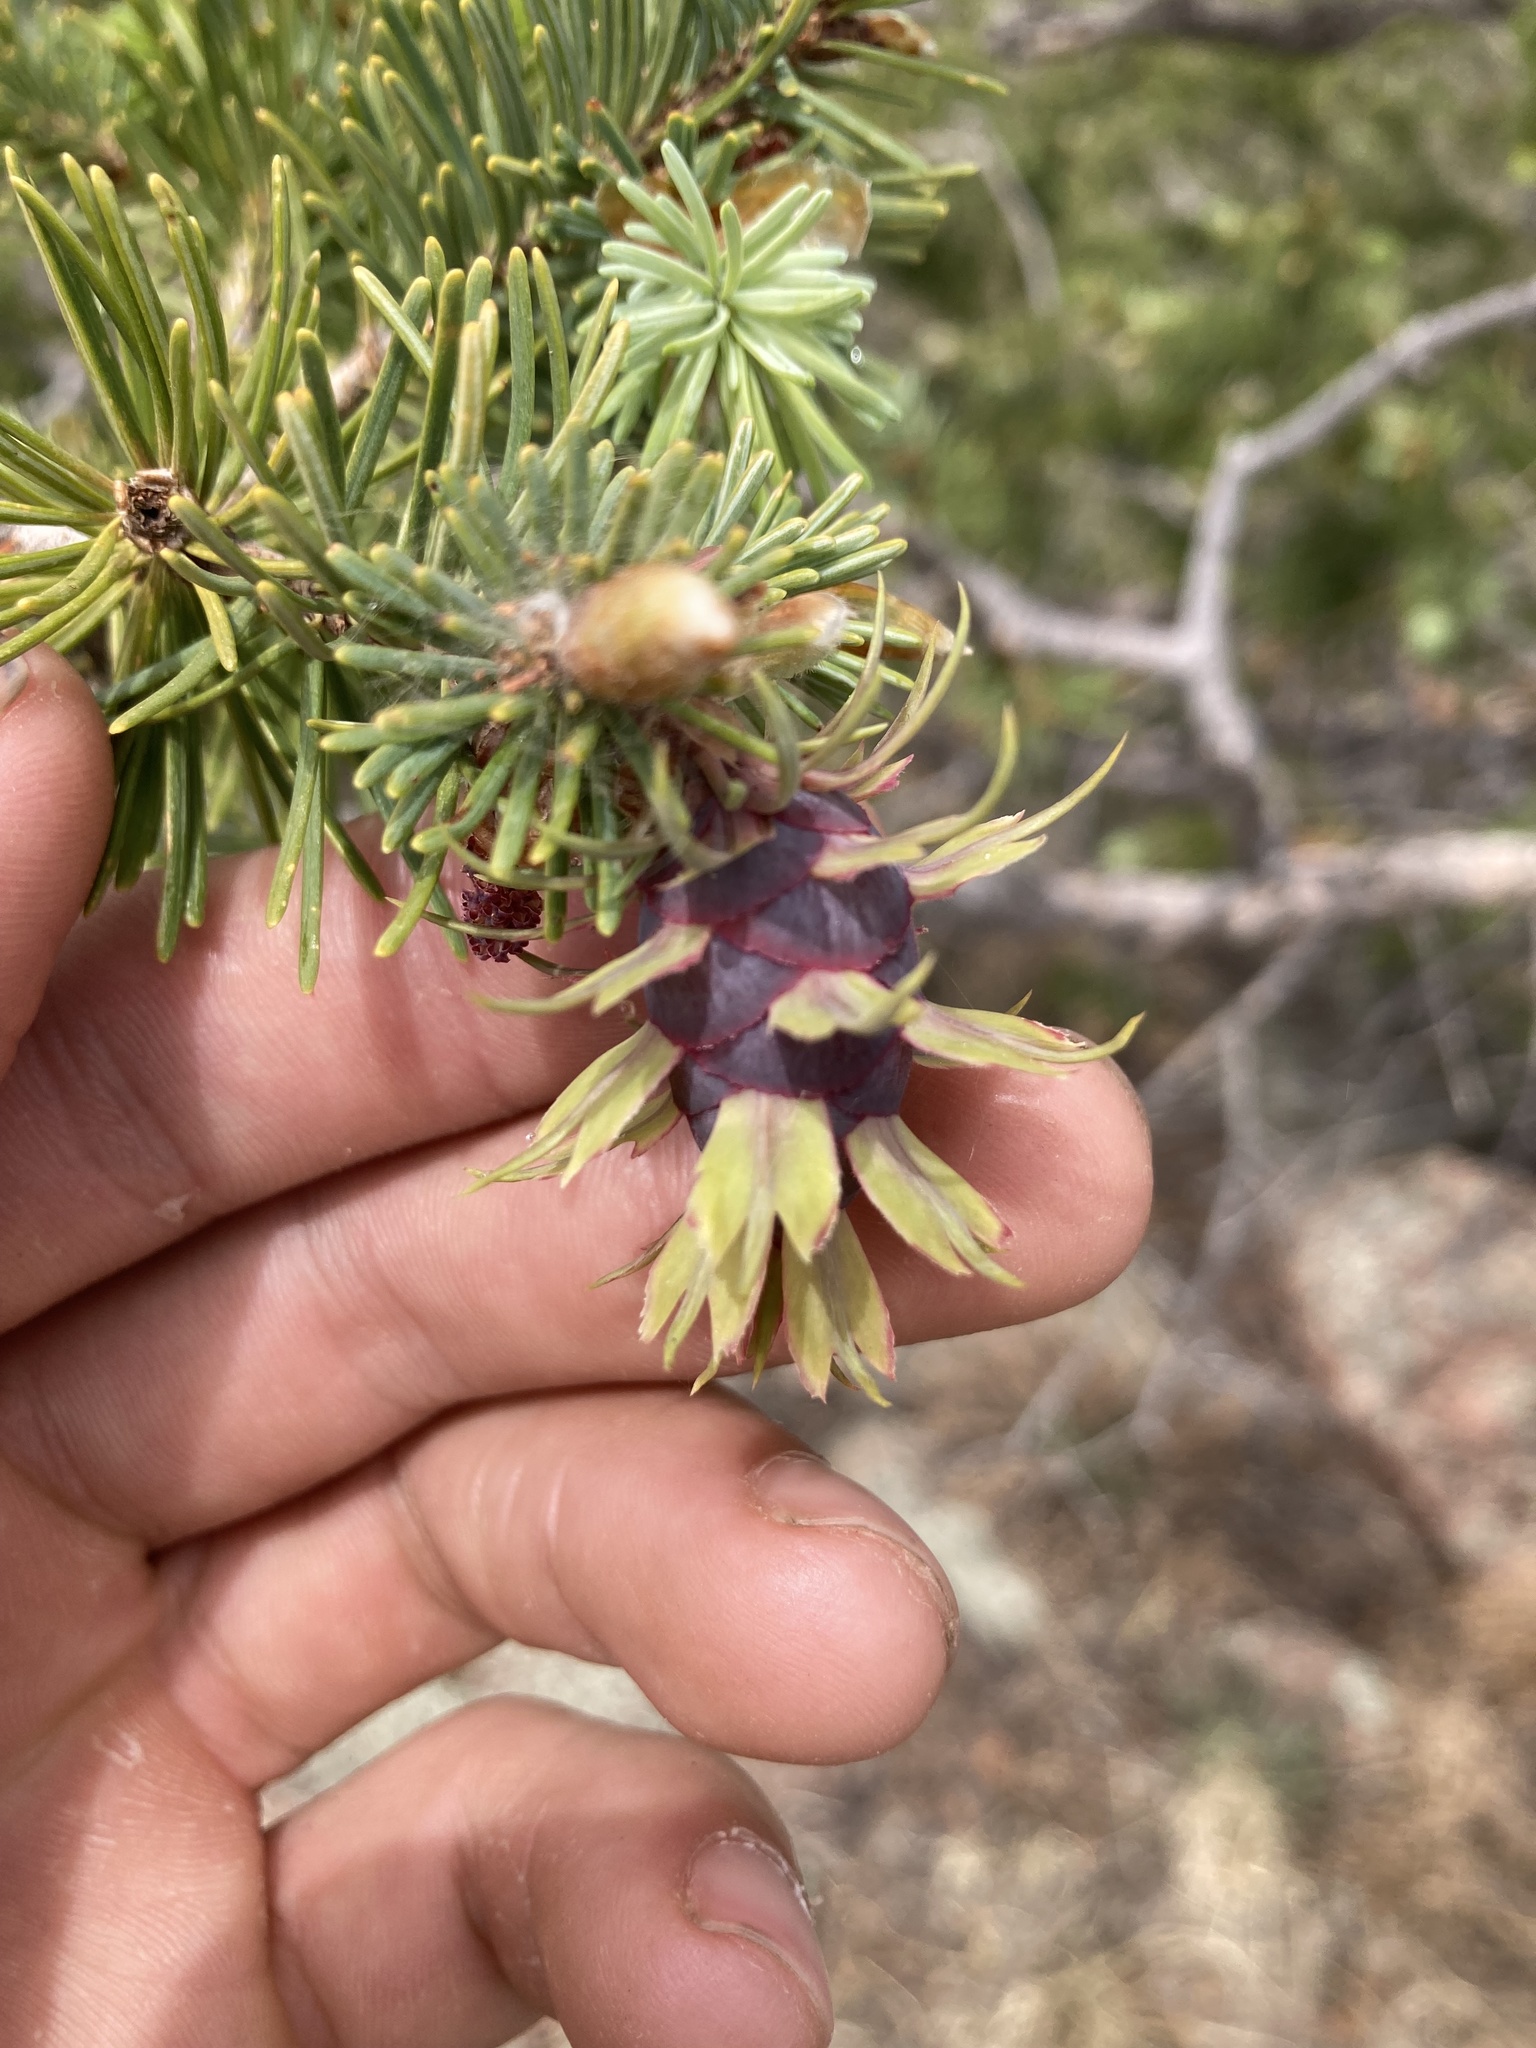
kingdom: Plantae
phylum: Tracheophyta
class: Pinopsida
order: Pinales
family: Pinaceae
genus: Pseudotsuga
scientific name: Pseudotsuga menziesii
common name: Douglas fir
